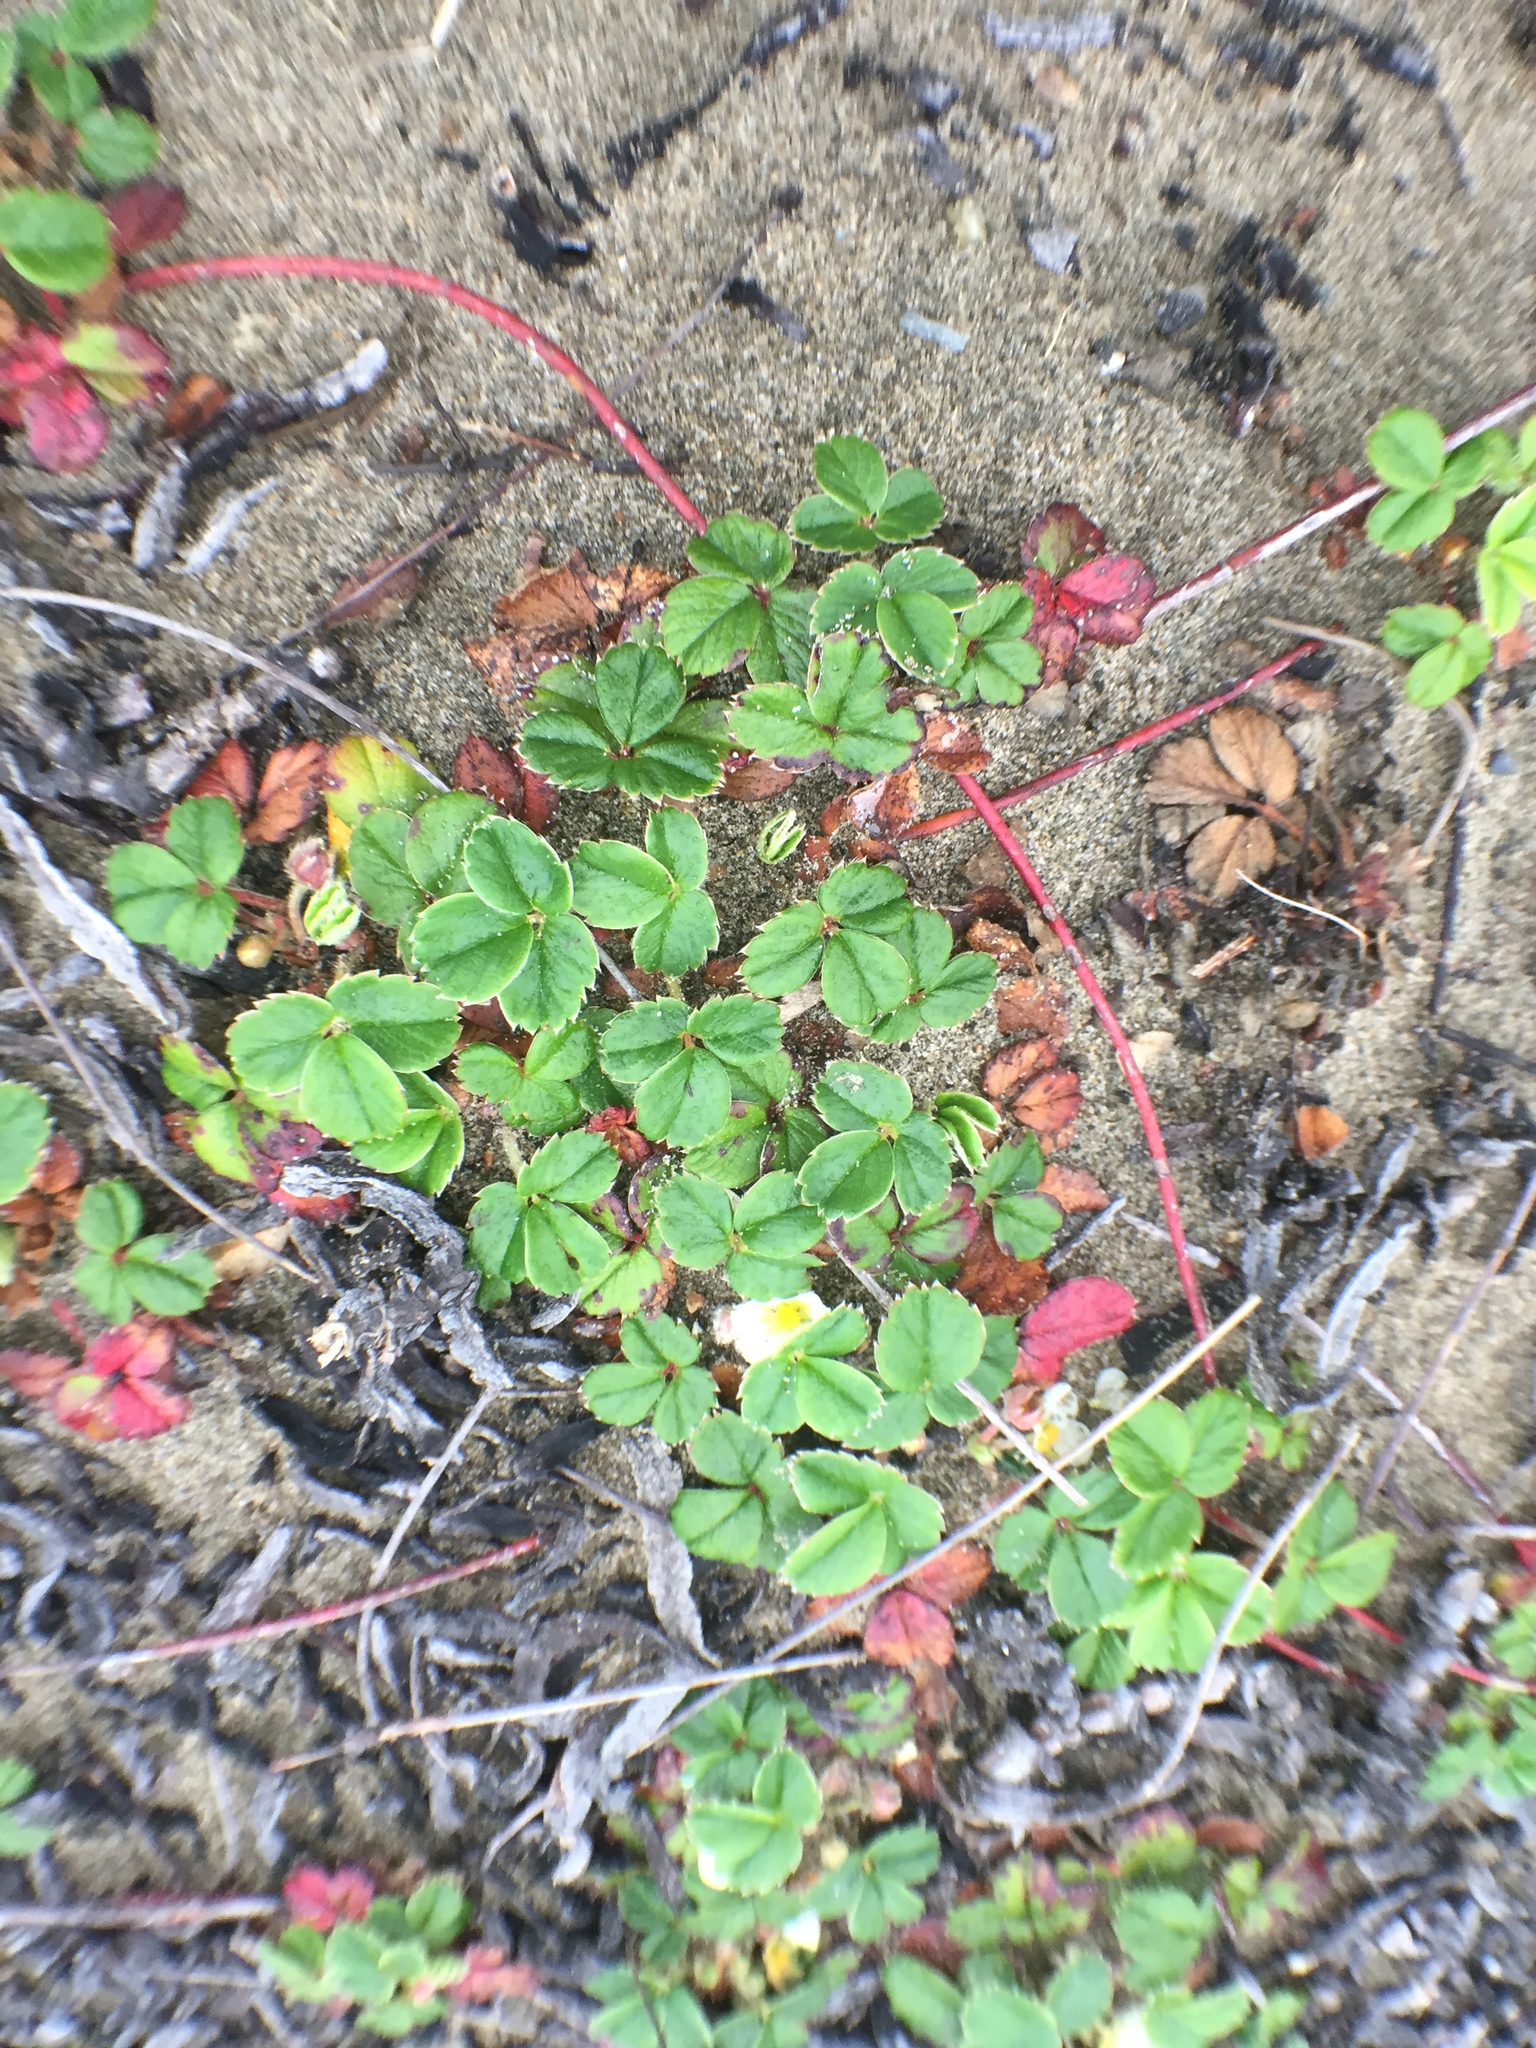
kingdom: Plantae
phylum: Tracheophyta
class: Magnoliopsida
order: Rosales
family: Rosaceae
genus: Fragaria
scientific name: Fragaria chiloensis
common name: Beach strawberry
